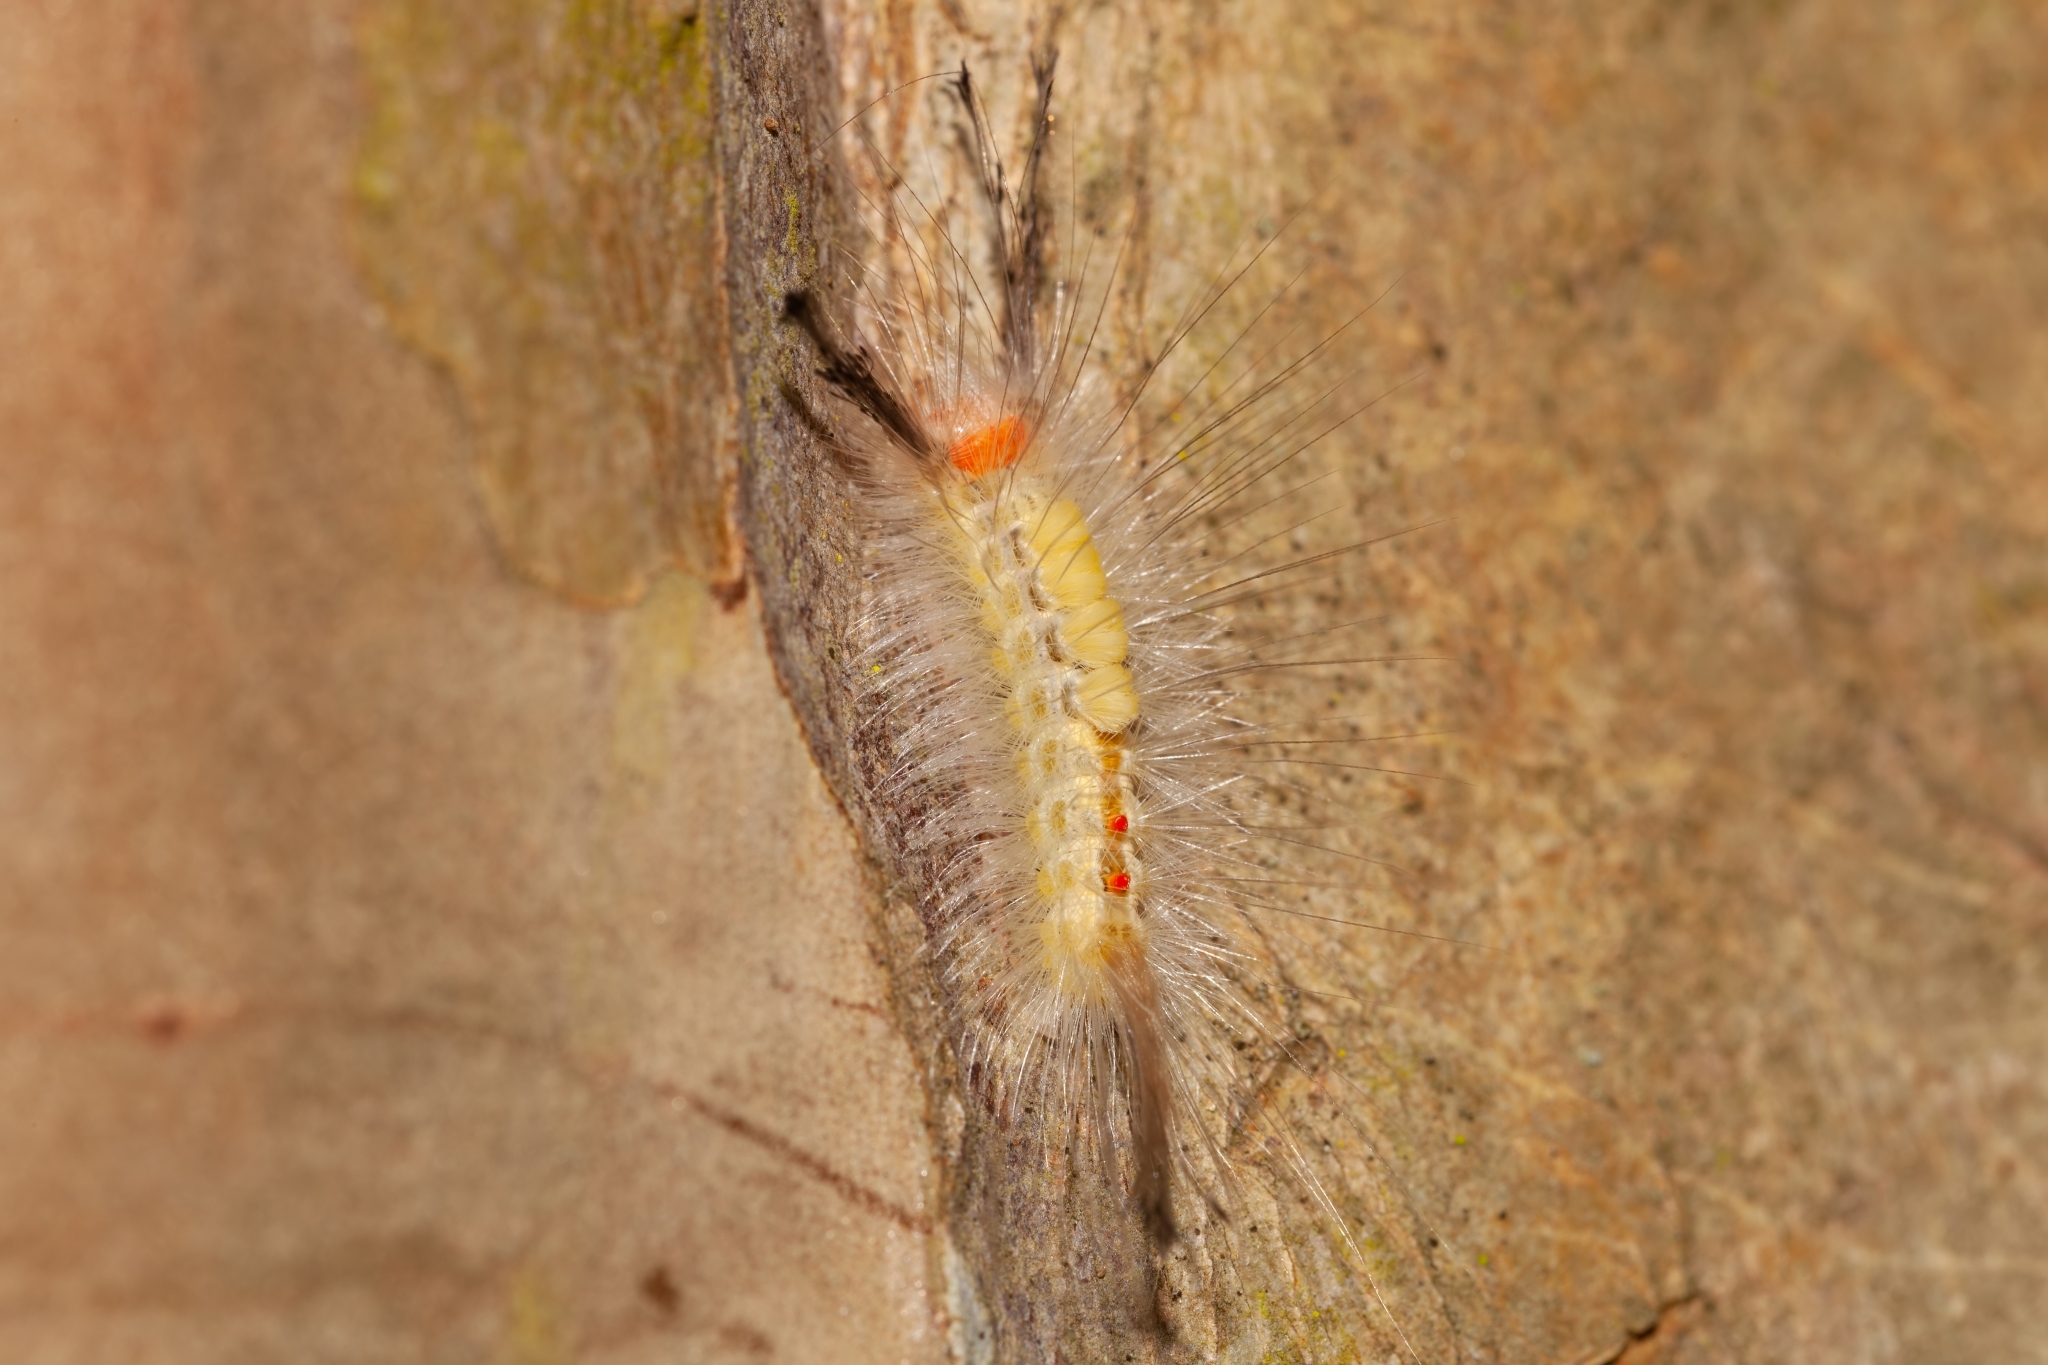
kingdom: Animalia
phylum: Arthropoda
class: Insecta
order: Lepidoptera
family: Erebidae
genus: Orgyia
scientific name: Orgyia leucostigma
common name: White-marked tussock moth
